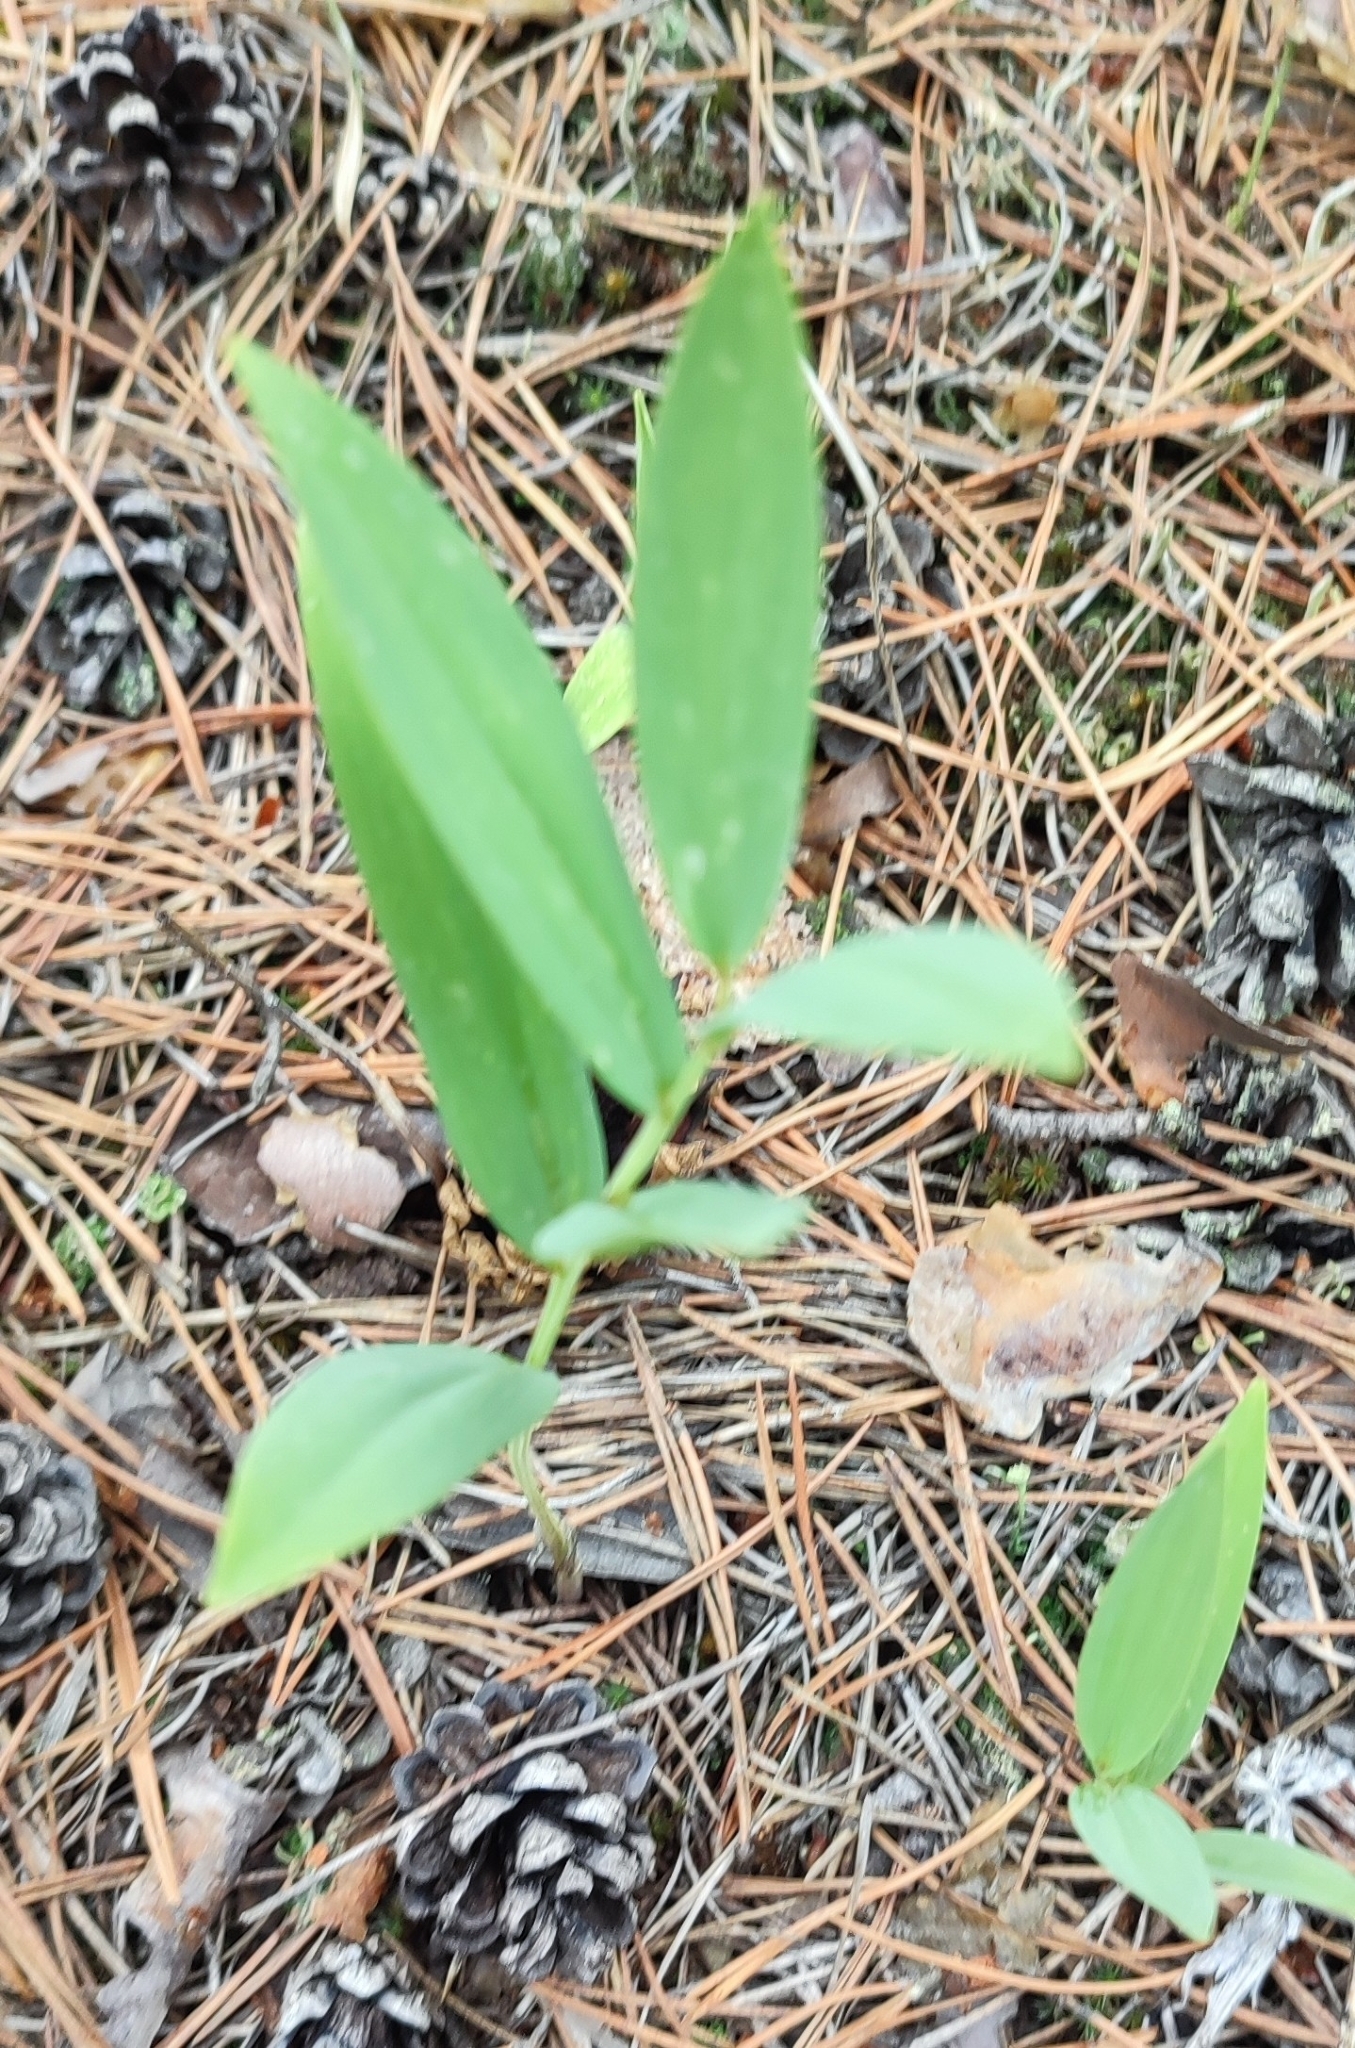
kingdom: Plantae
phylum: Tracheophyta
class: Liliopsida
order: Asparagales
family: Asparagaceae
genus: Polygonatum
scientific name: Polygonatum odoratum
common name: Angular solomon's-seal
